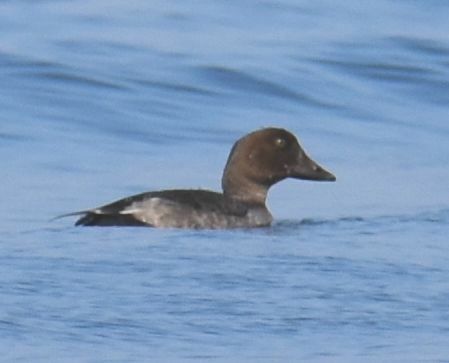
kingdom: Animalia
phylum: Chordata
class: Aves
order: Anseriformes
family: Anatidae
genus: Bucephala
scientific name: Bucephala clangula
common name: Common goldeneye
